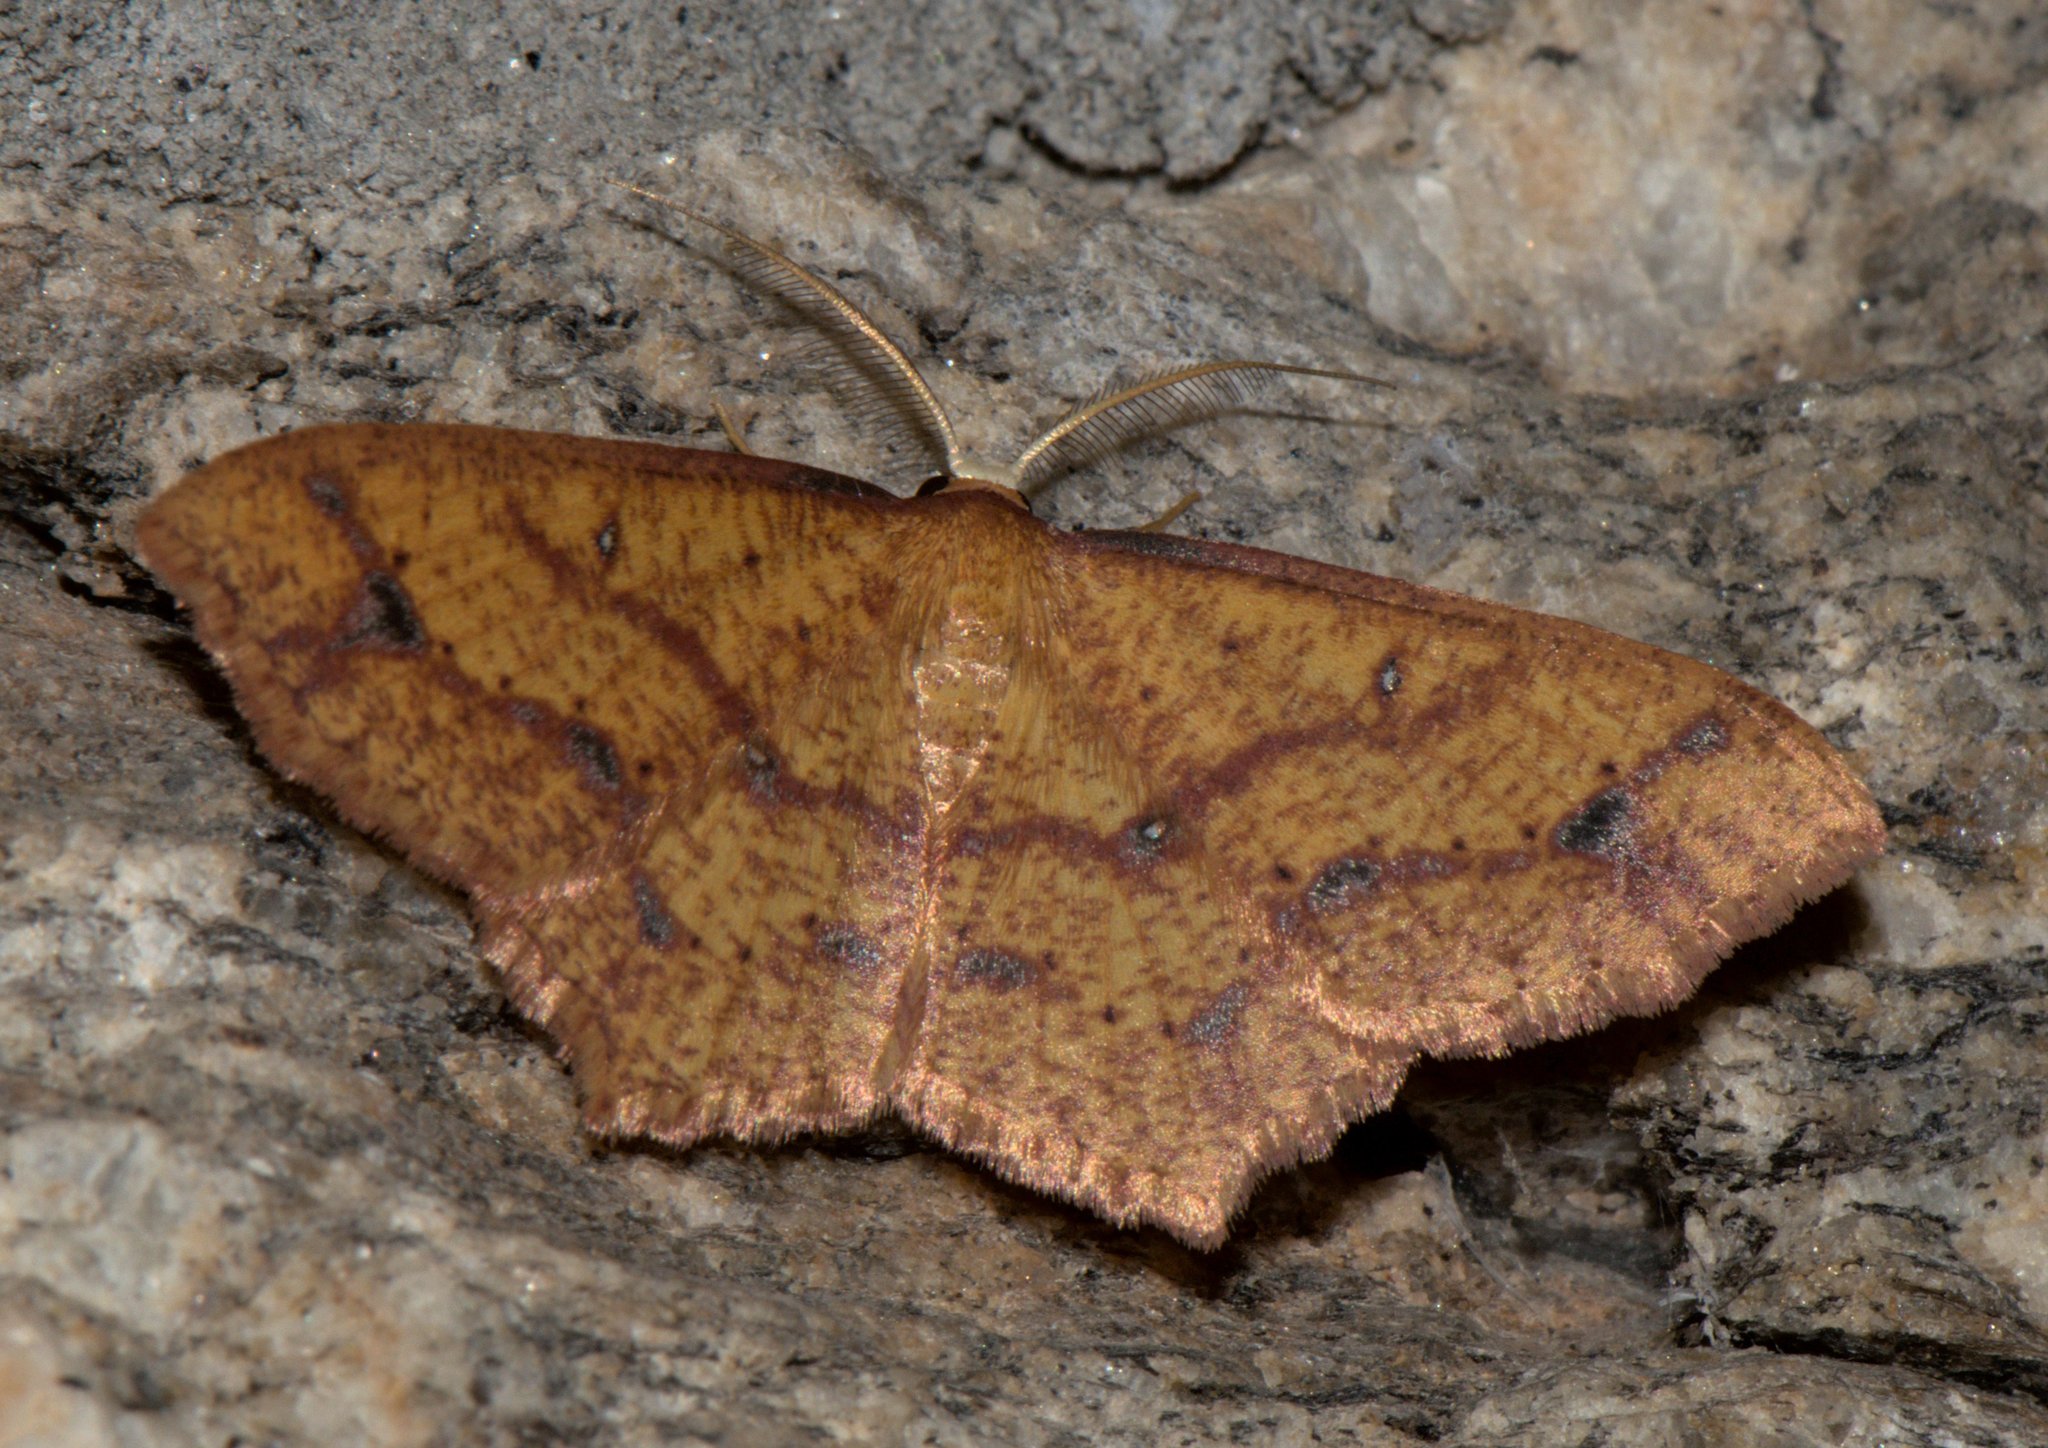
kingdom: Animalia
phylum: Arthropoda
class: Insecta
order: Lepidoptera
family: Geometridae
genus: Synegiodes
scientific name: Synegiodes hyriaria
